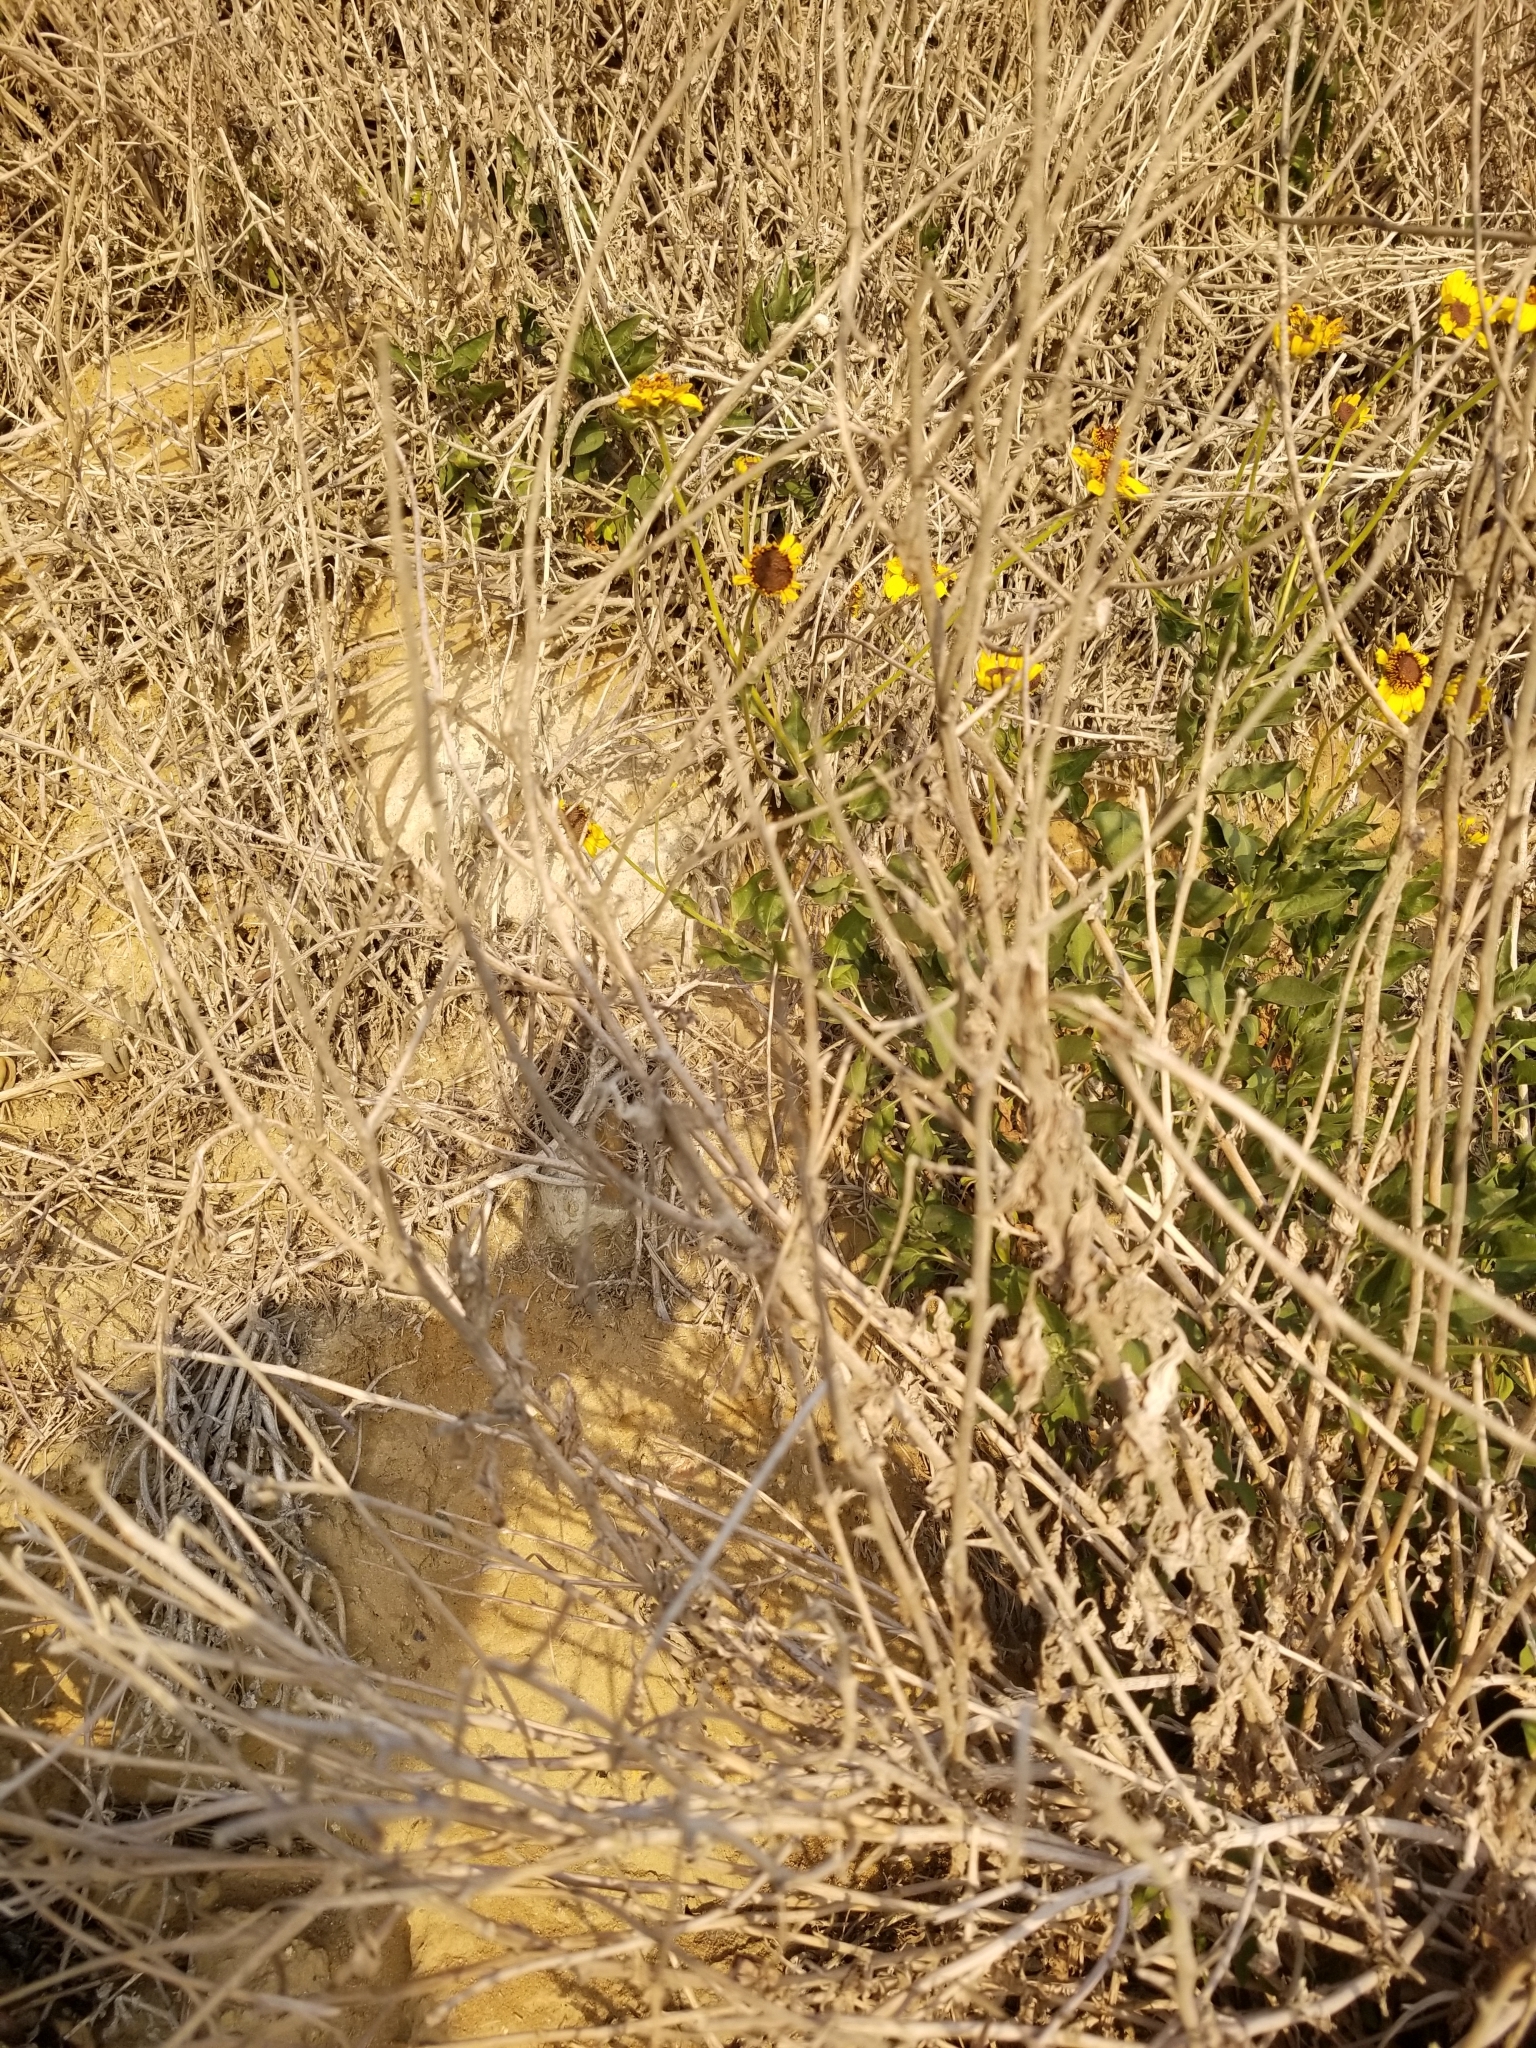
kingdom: Plantae
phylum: Tracheophyta
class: Magnoliopsida
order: Asterales
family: Asteraceae
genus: Encelia
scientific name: Encelia californica
